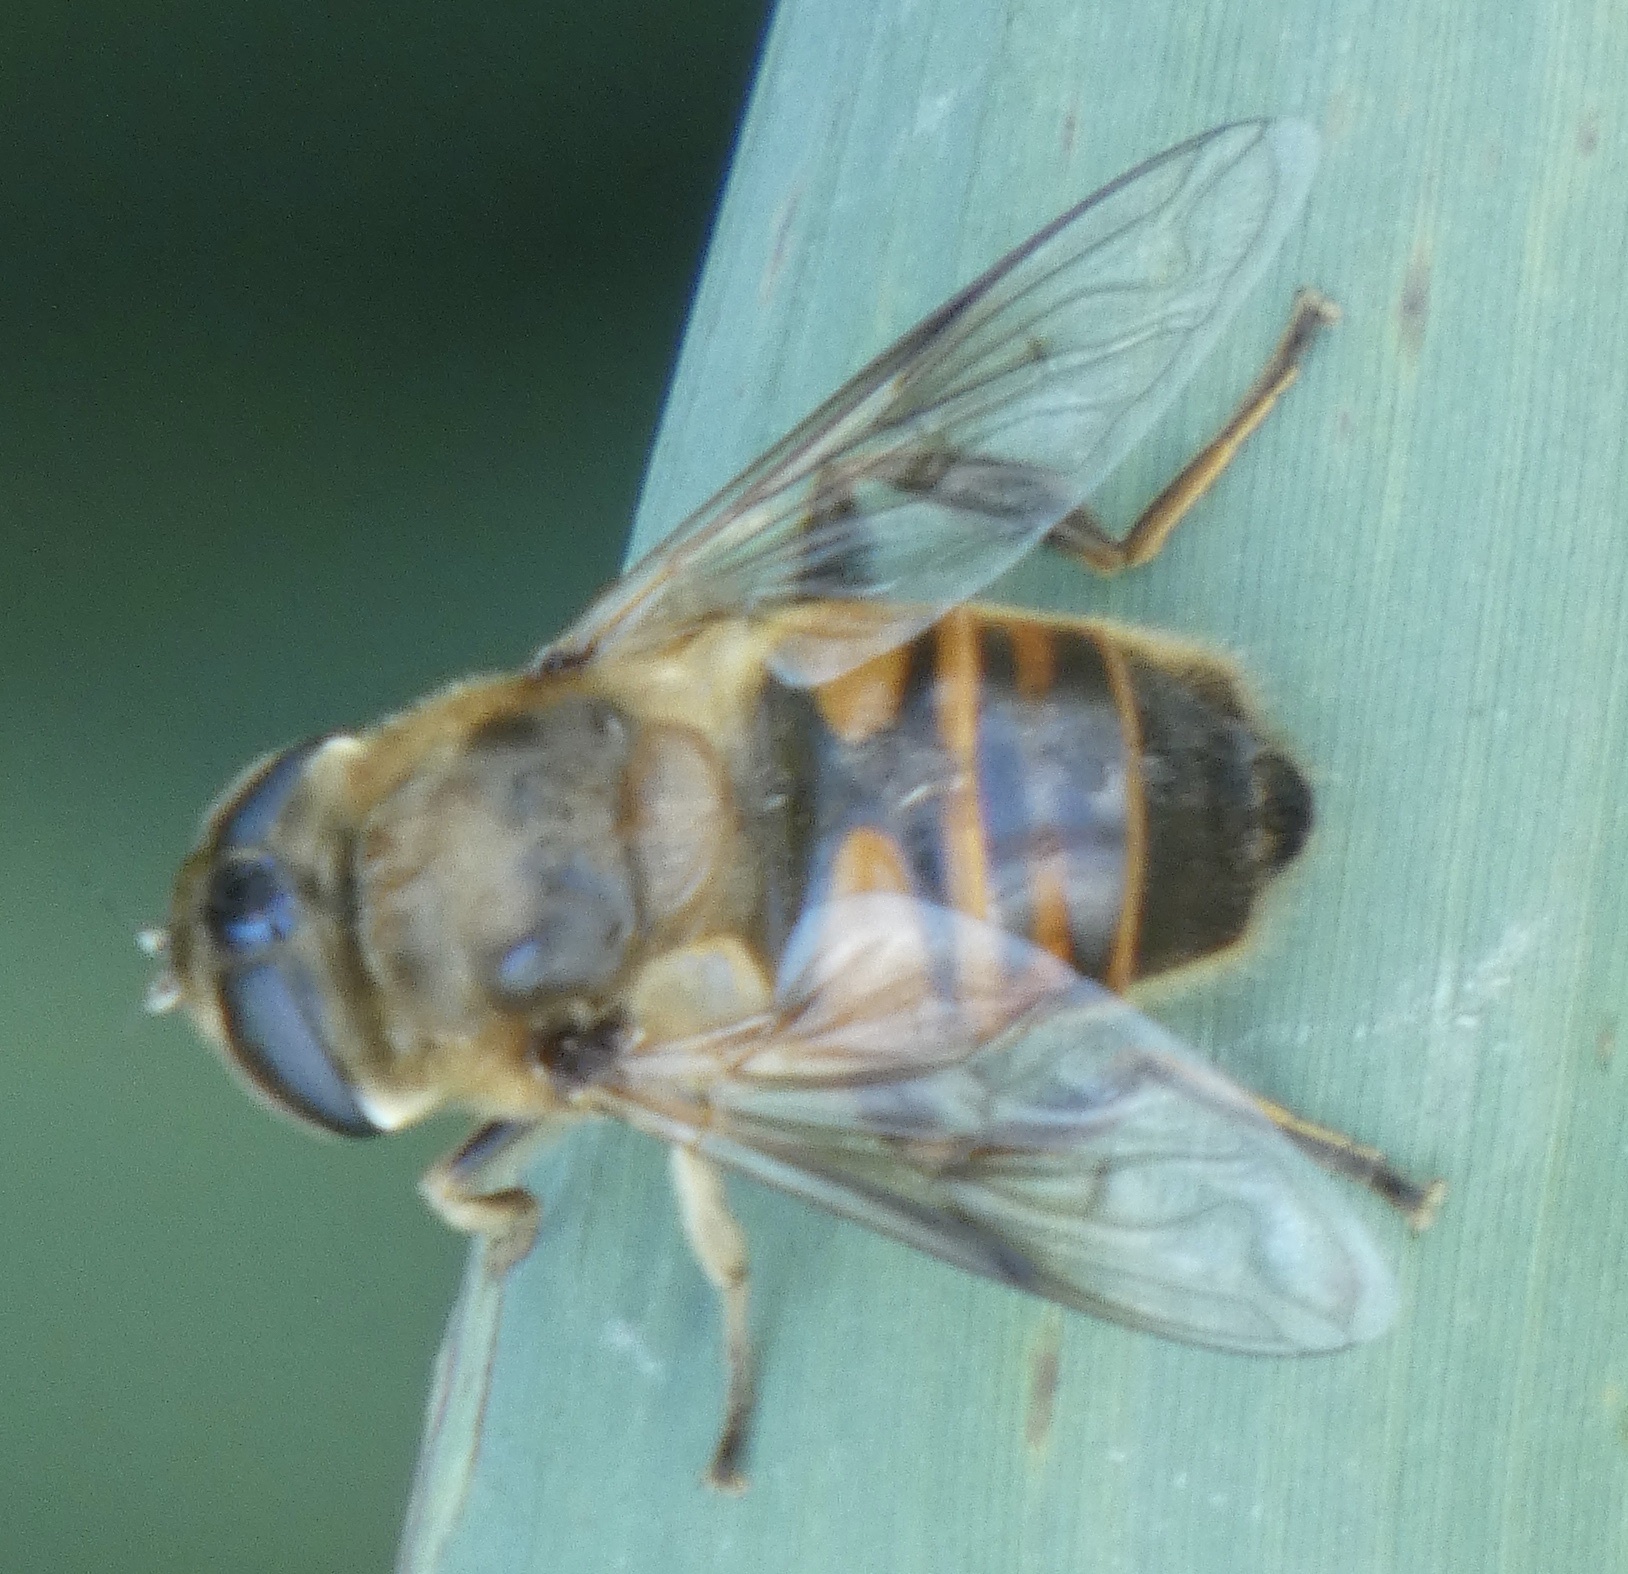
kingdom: Animalia
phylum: Arthropoda
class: Insecta
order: Diptera
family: Syrphidae
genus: Eristalis
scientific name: Eristalis tenax
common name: Drone fly
